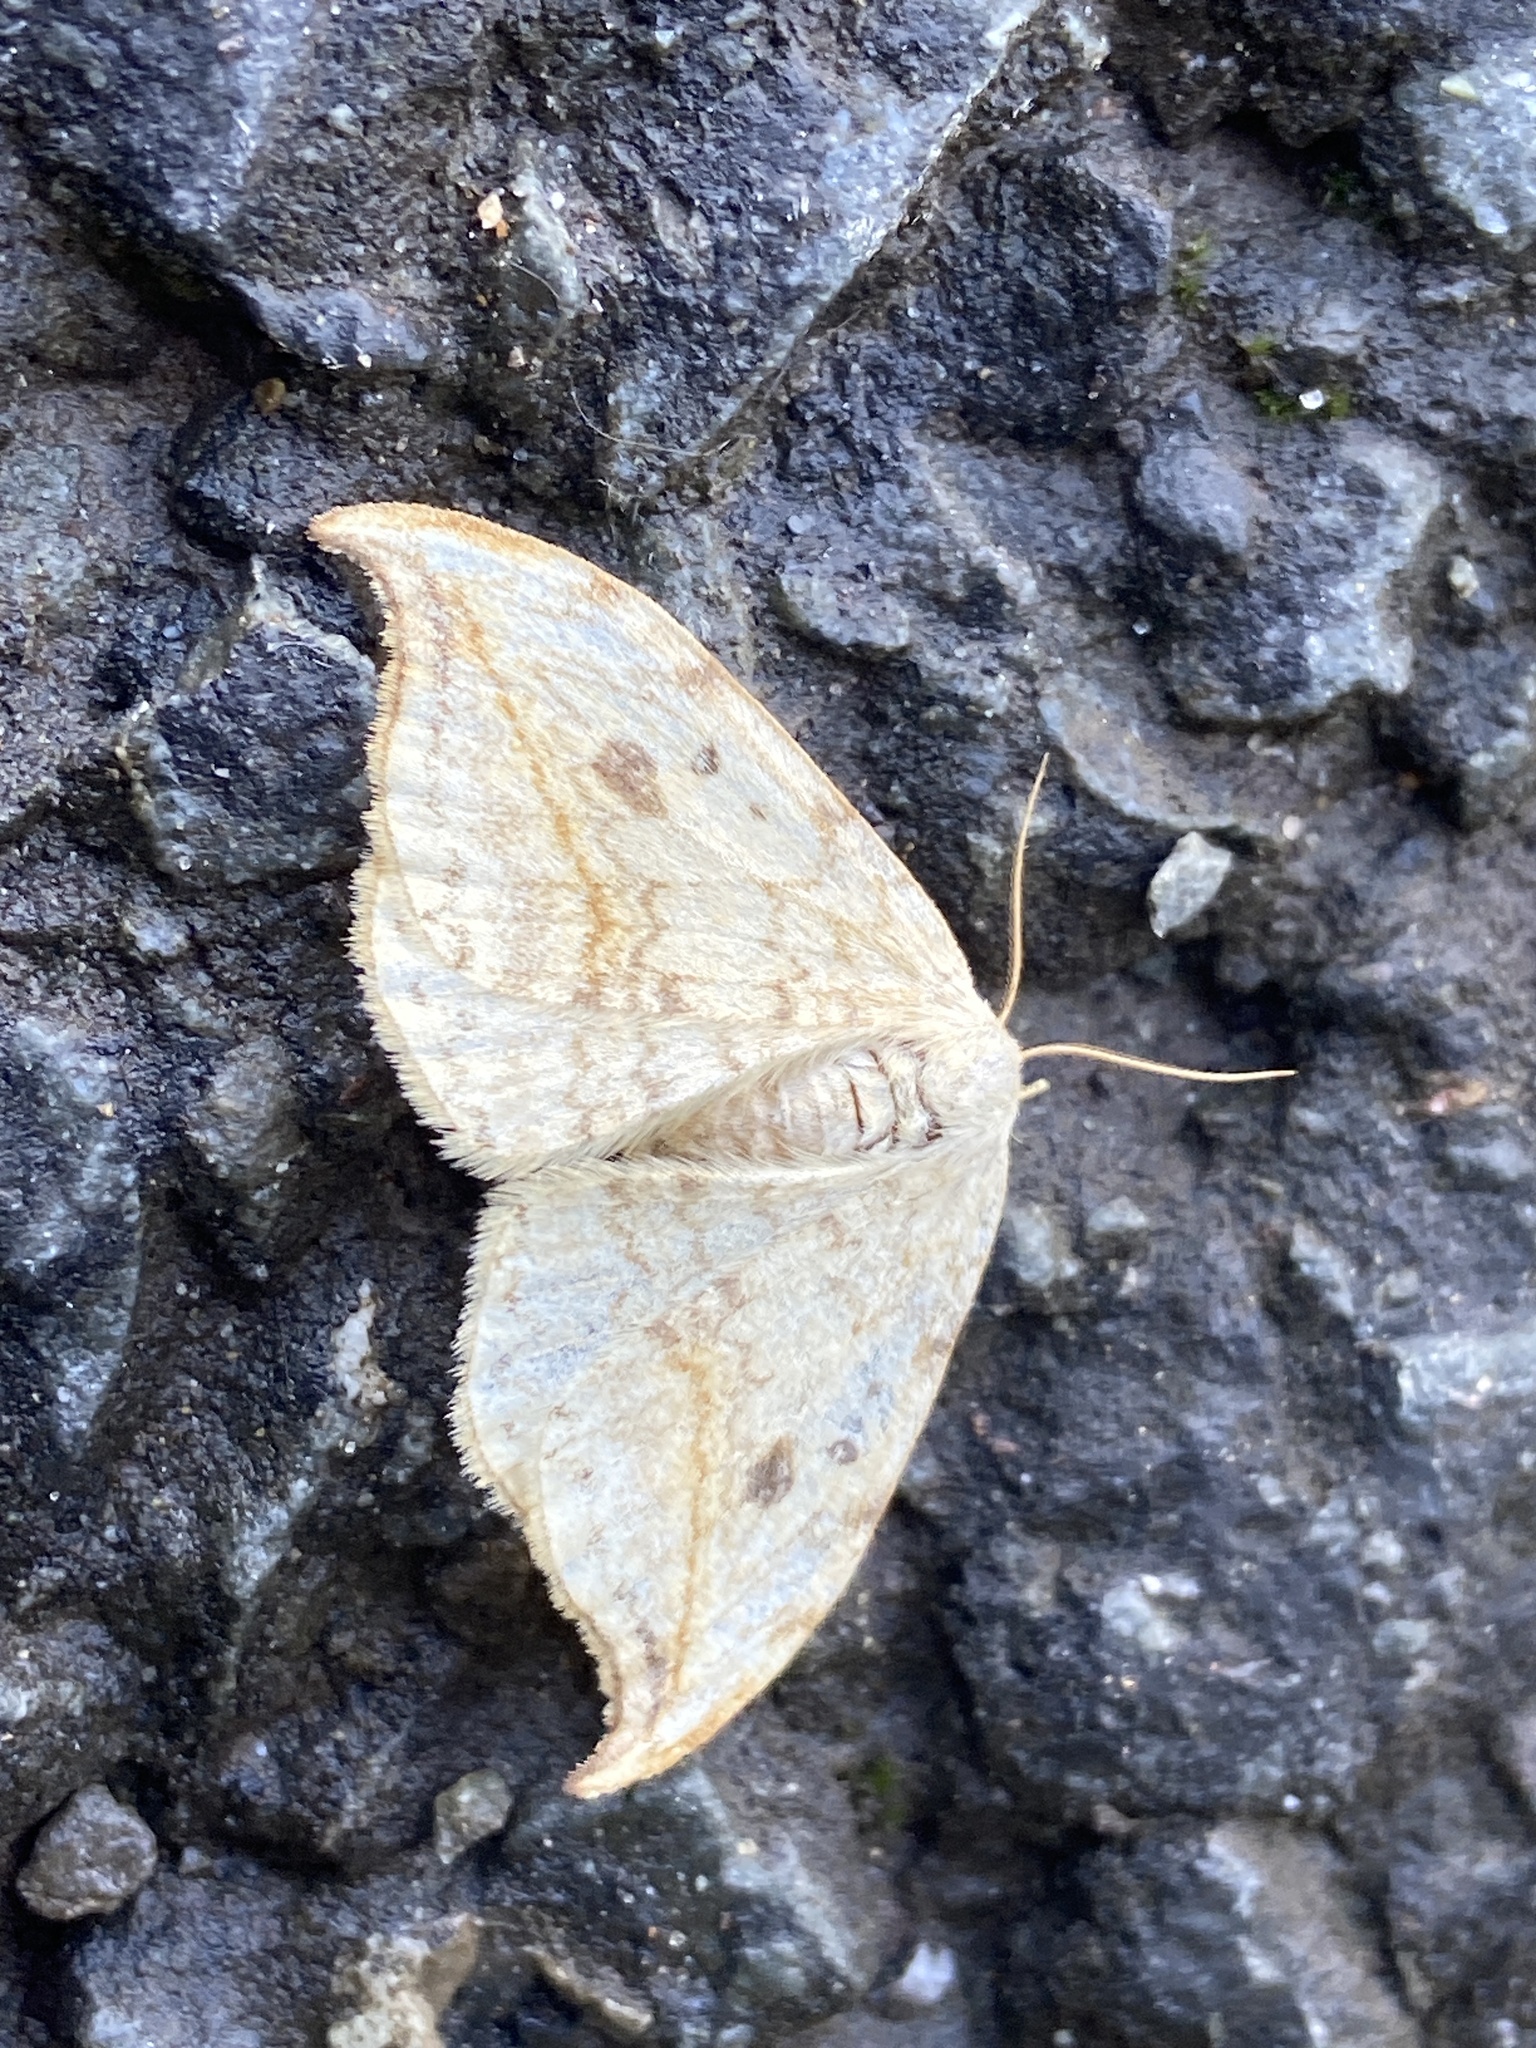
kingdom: Animalia
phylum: Arthropoda
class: Insecta
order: Lepidoptera
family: Drepanidae
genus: Drepana
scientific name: Drepana falcataria
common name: Pebble hook-tip
